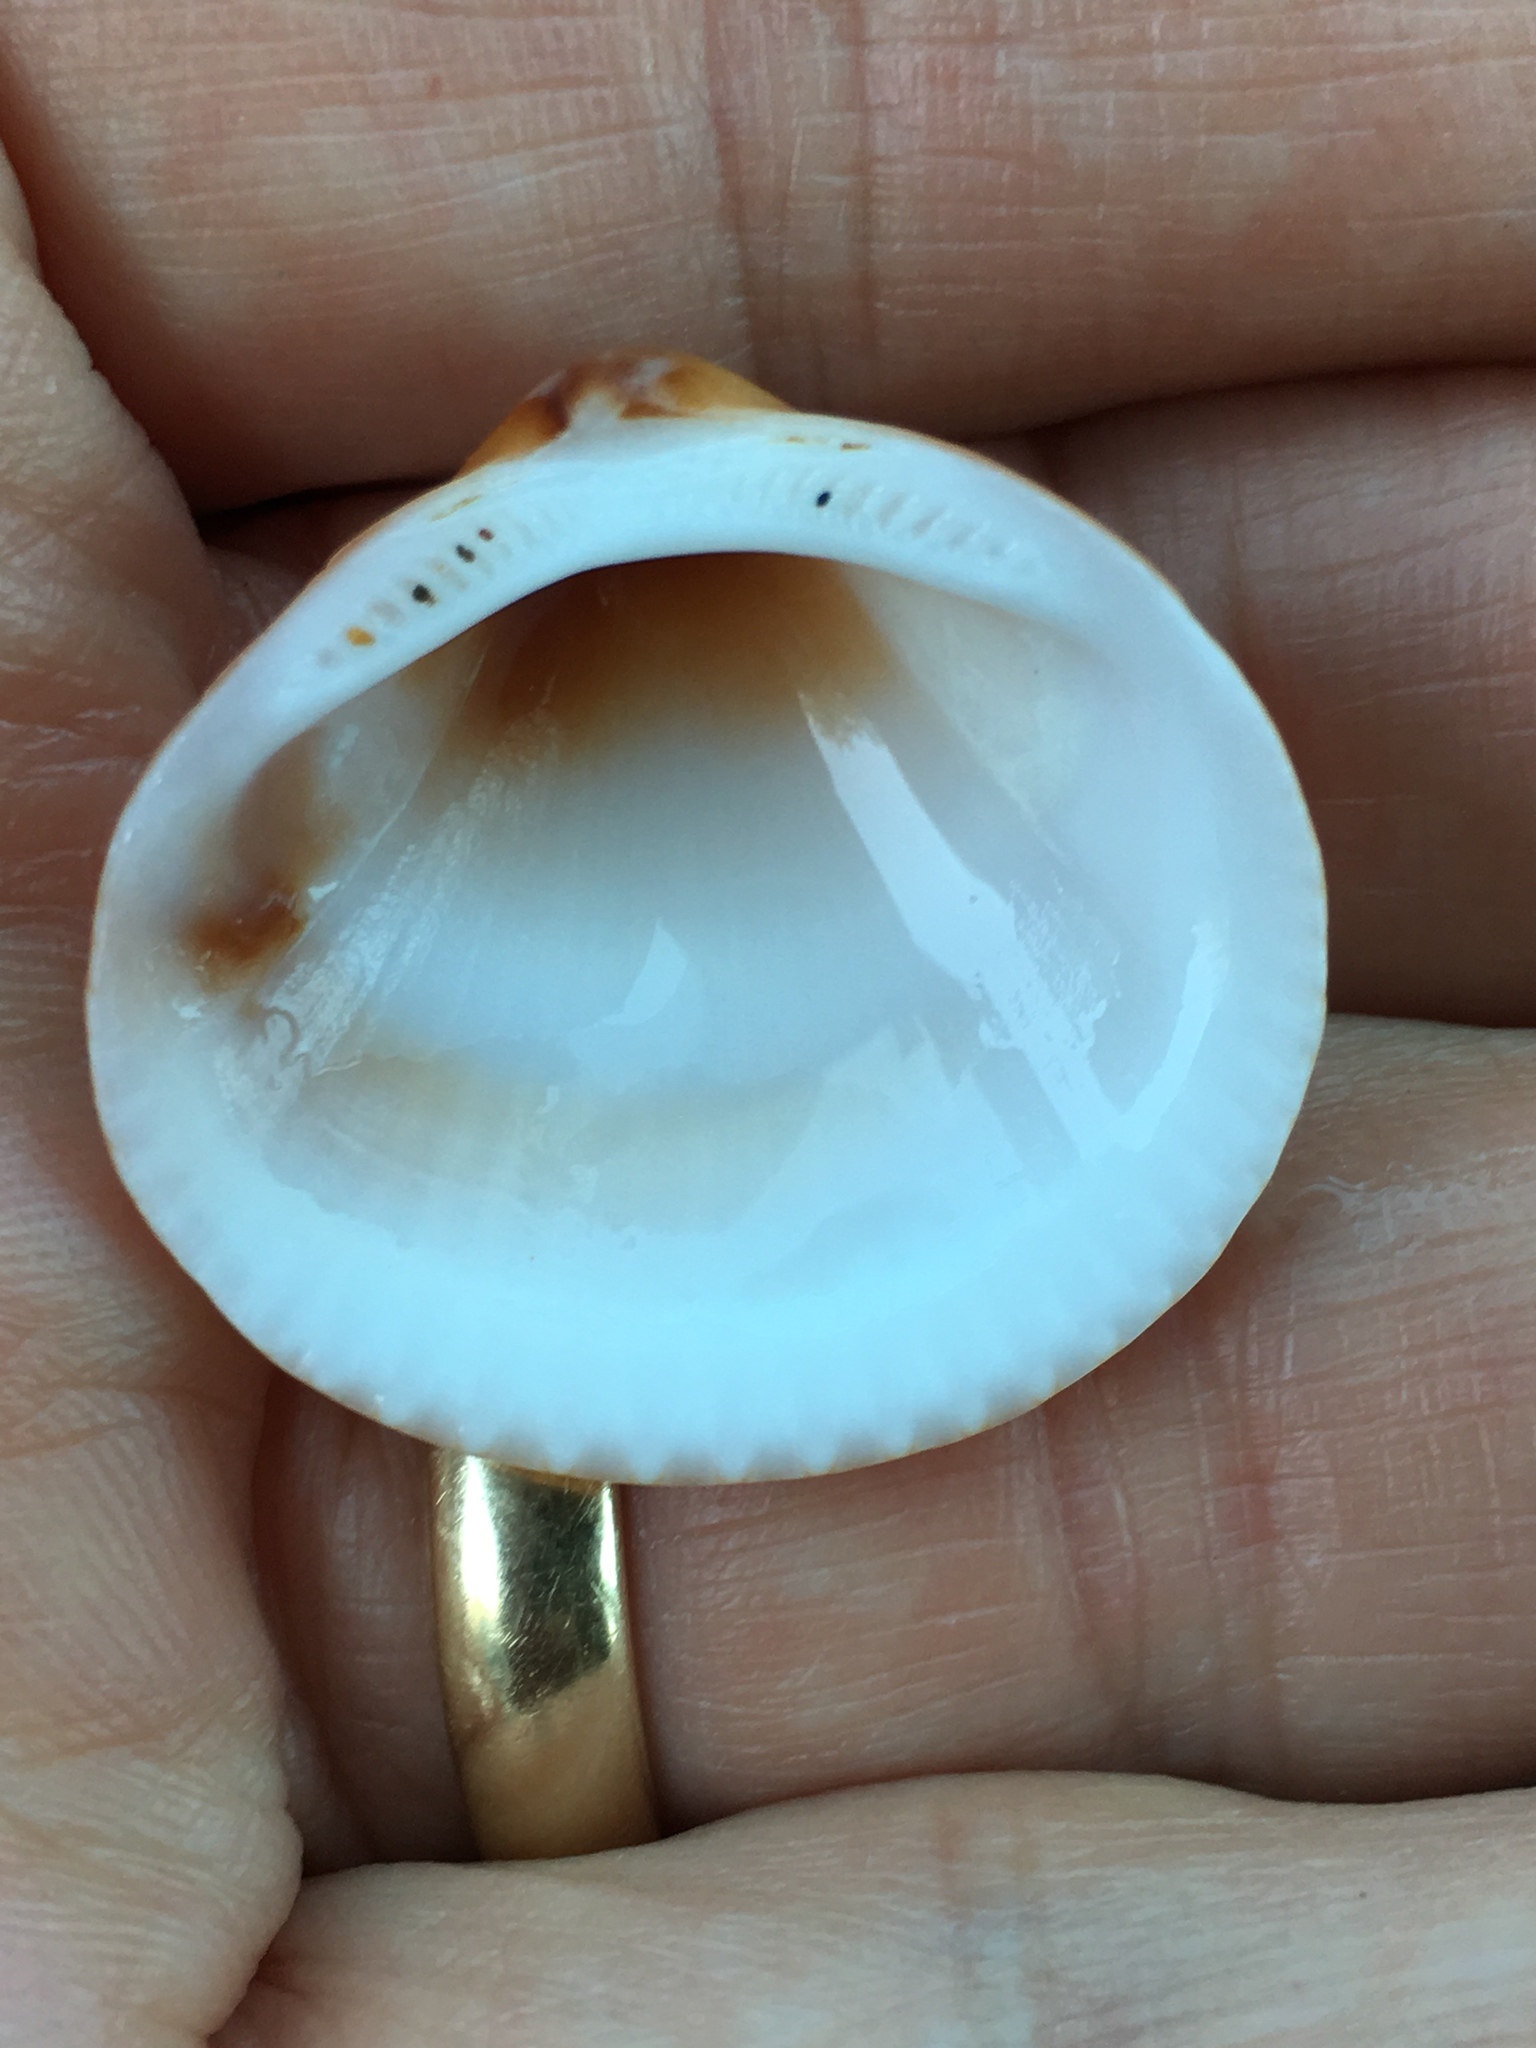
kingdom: Animalia
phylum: Mollusca
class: Bivalvia
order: Arcida
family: Glycymerididae
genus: Glycymeris
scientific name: Glycymeris spectralis
